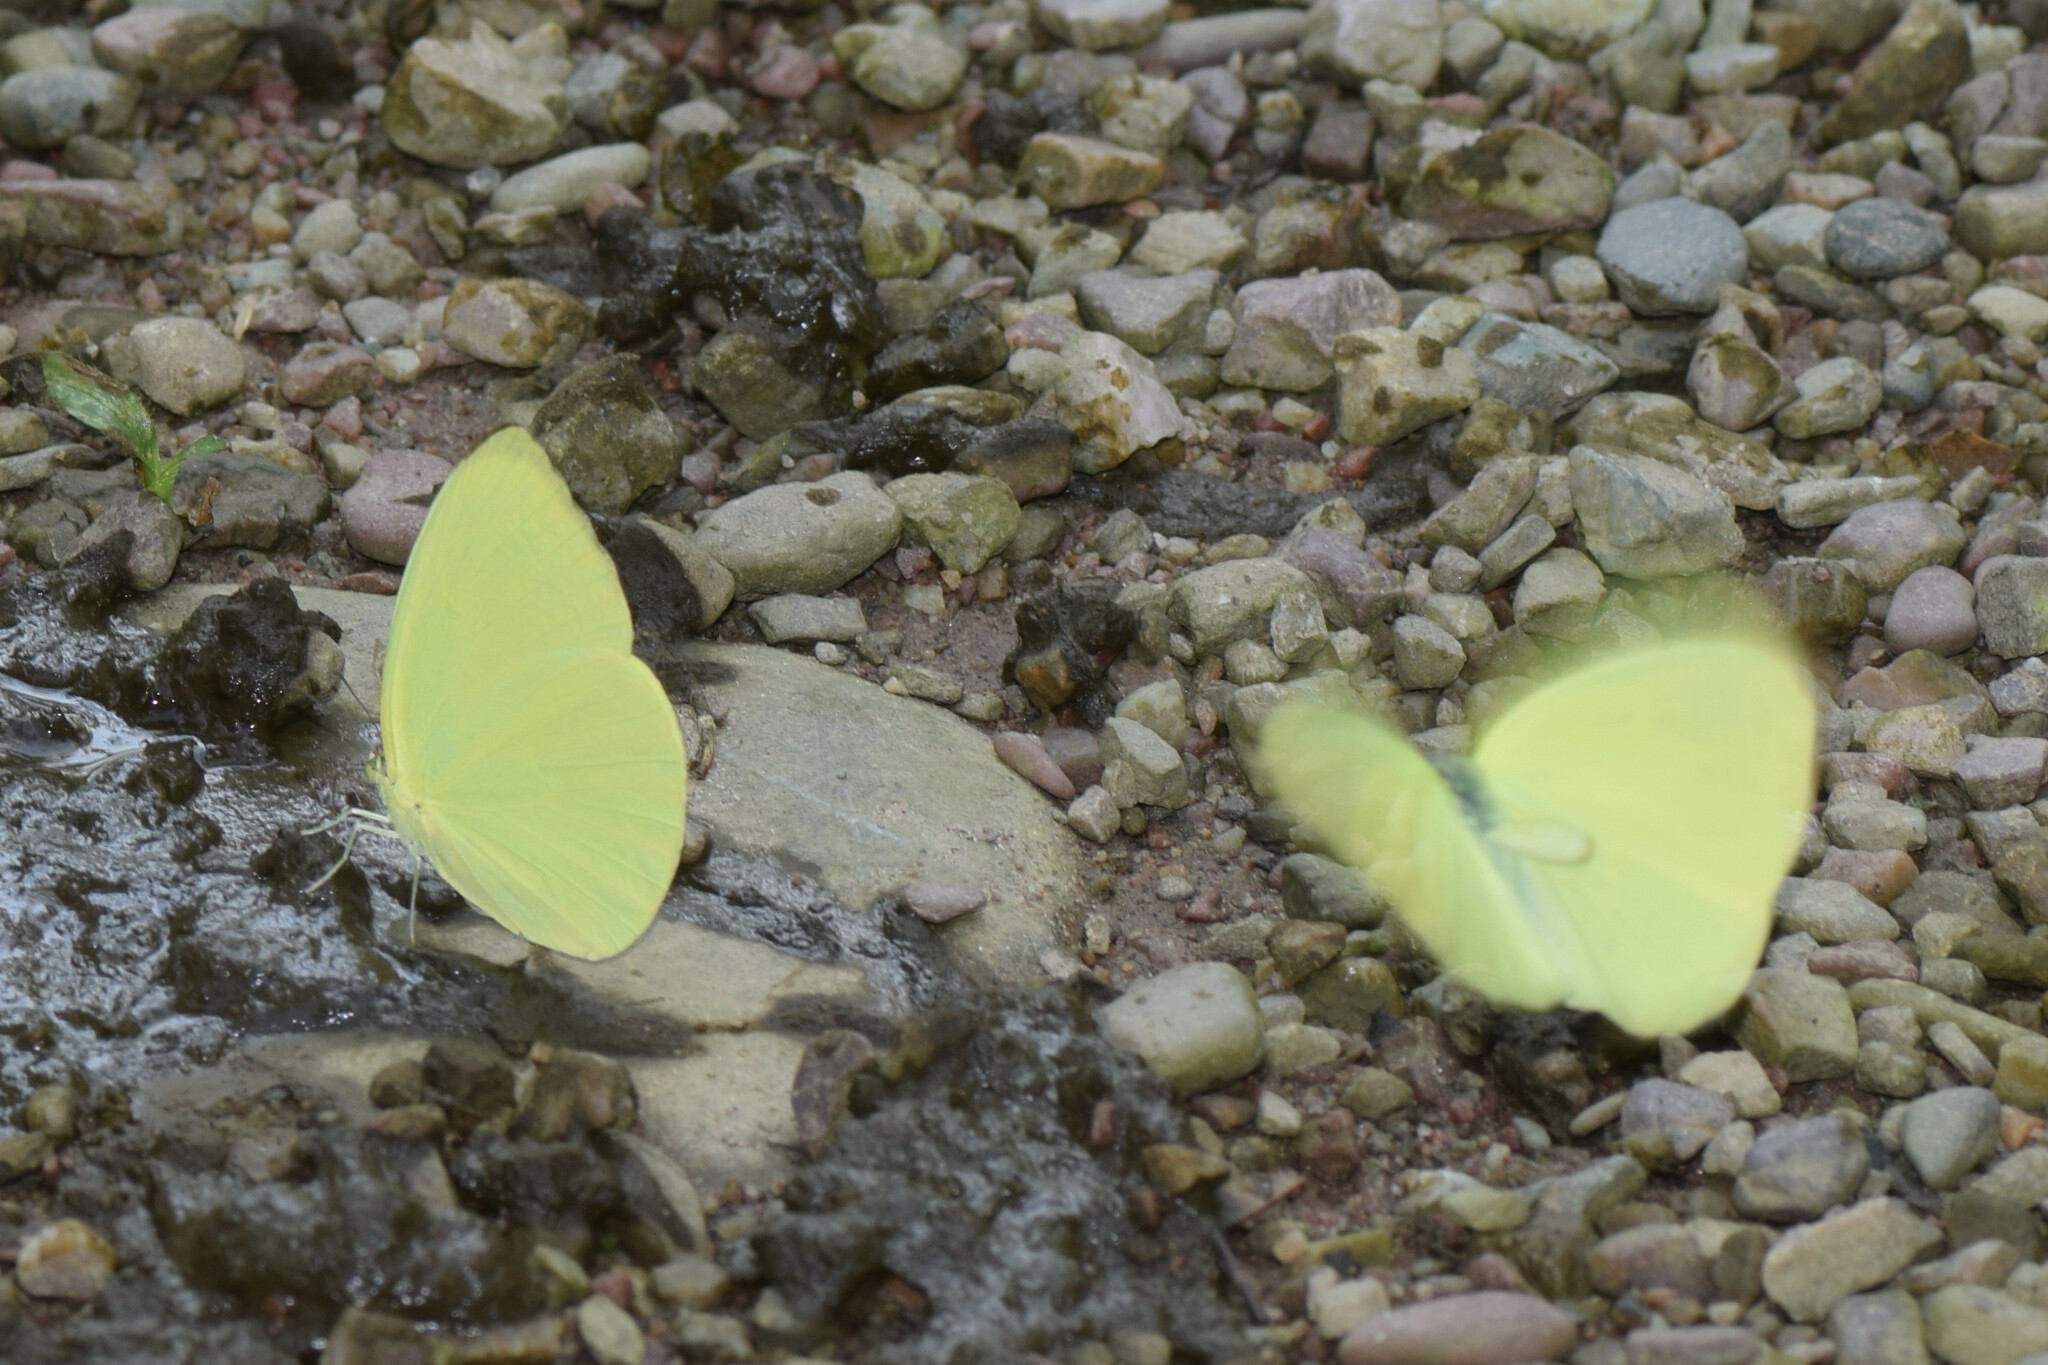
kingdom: Animalia
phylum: Arthropoda
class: Insecta
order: Lepidoptera
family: Pieridae
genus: Gandaca
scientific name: Gandaca harina
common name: Tree yellow
